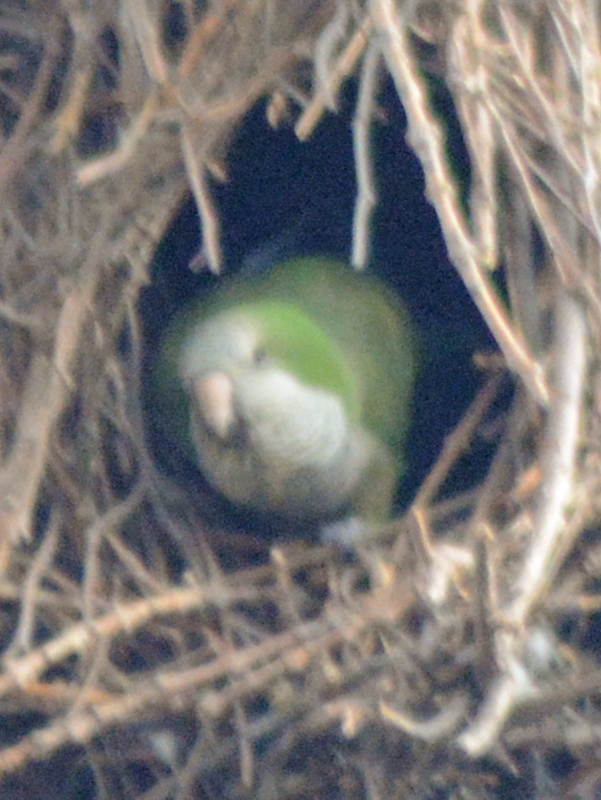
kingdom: Animalia
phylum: Chordata
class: Aves
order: Psittaciformes
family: Psittacidae
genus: Myiopsitta
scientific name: Myiopsitta monachus
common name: Monk parakeet
